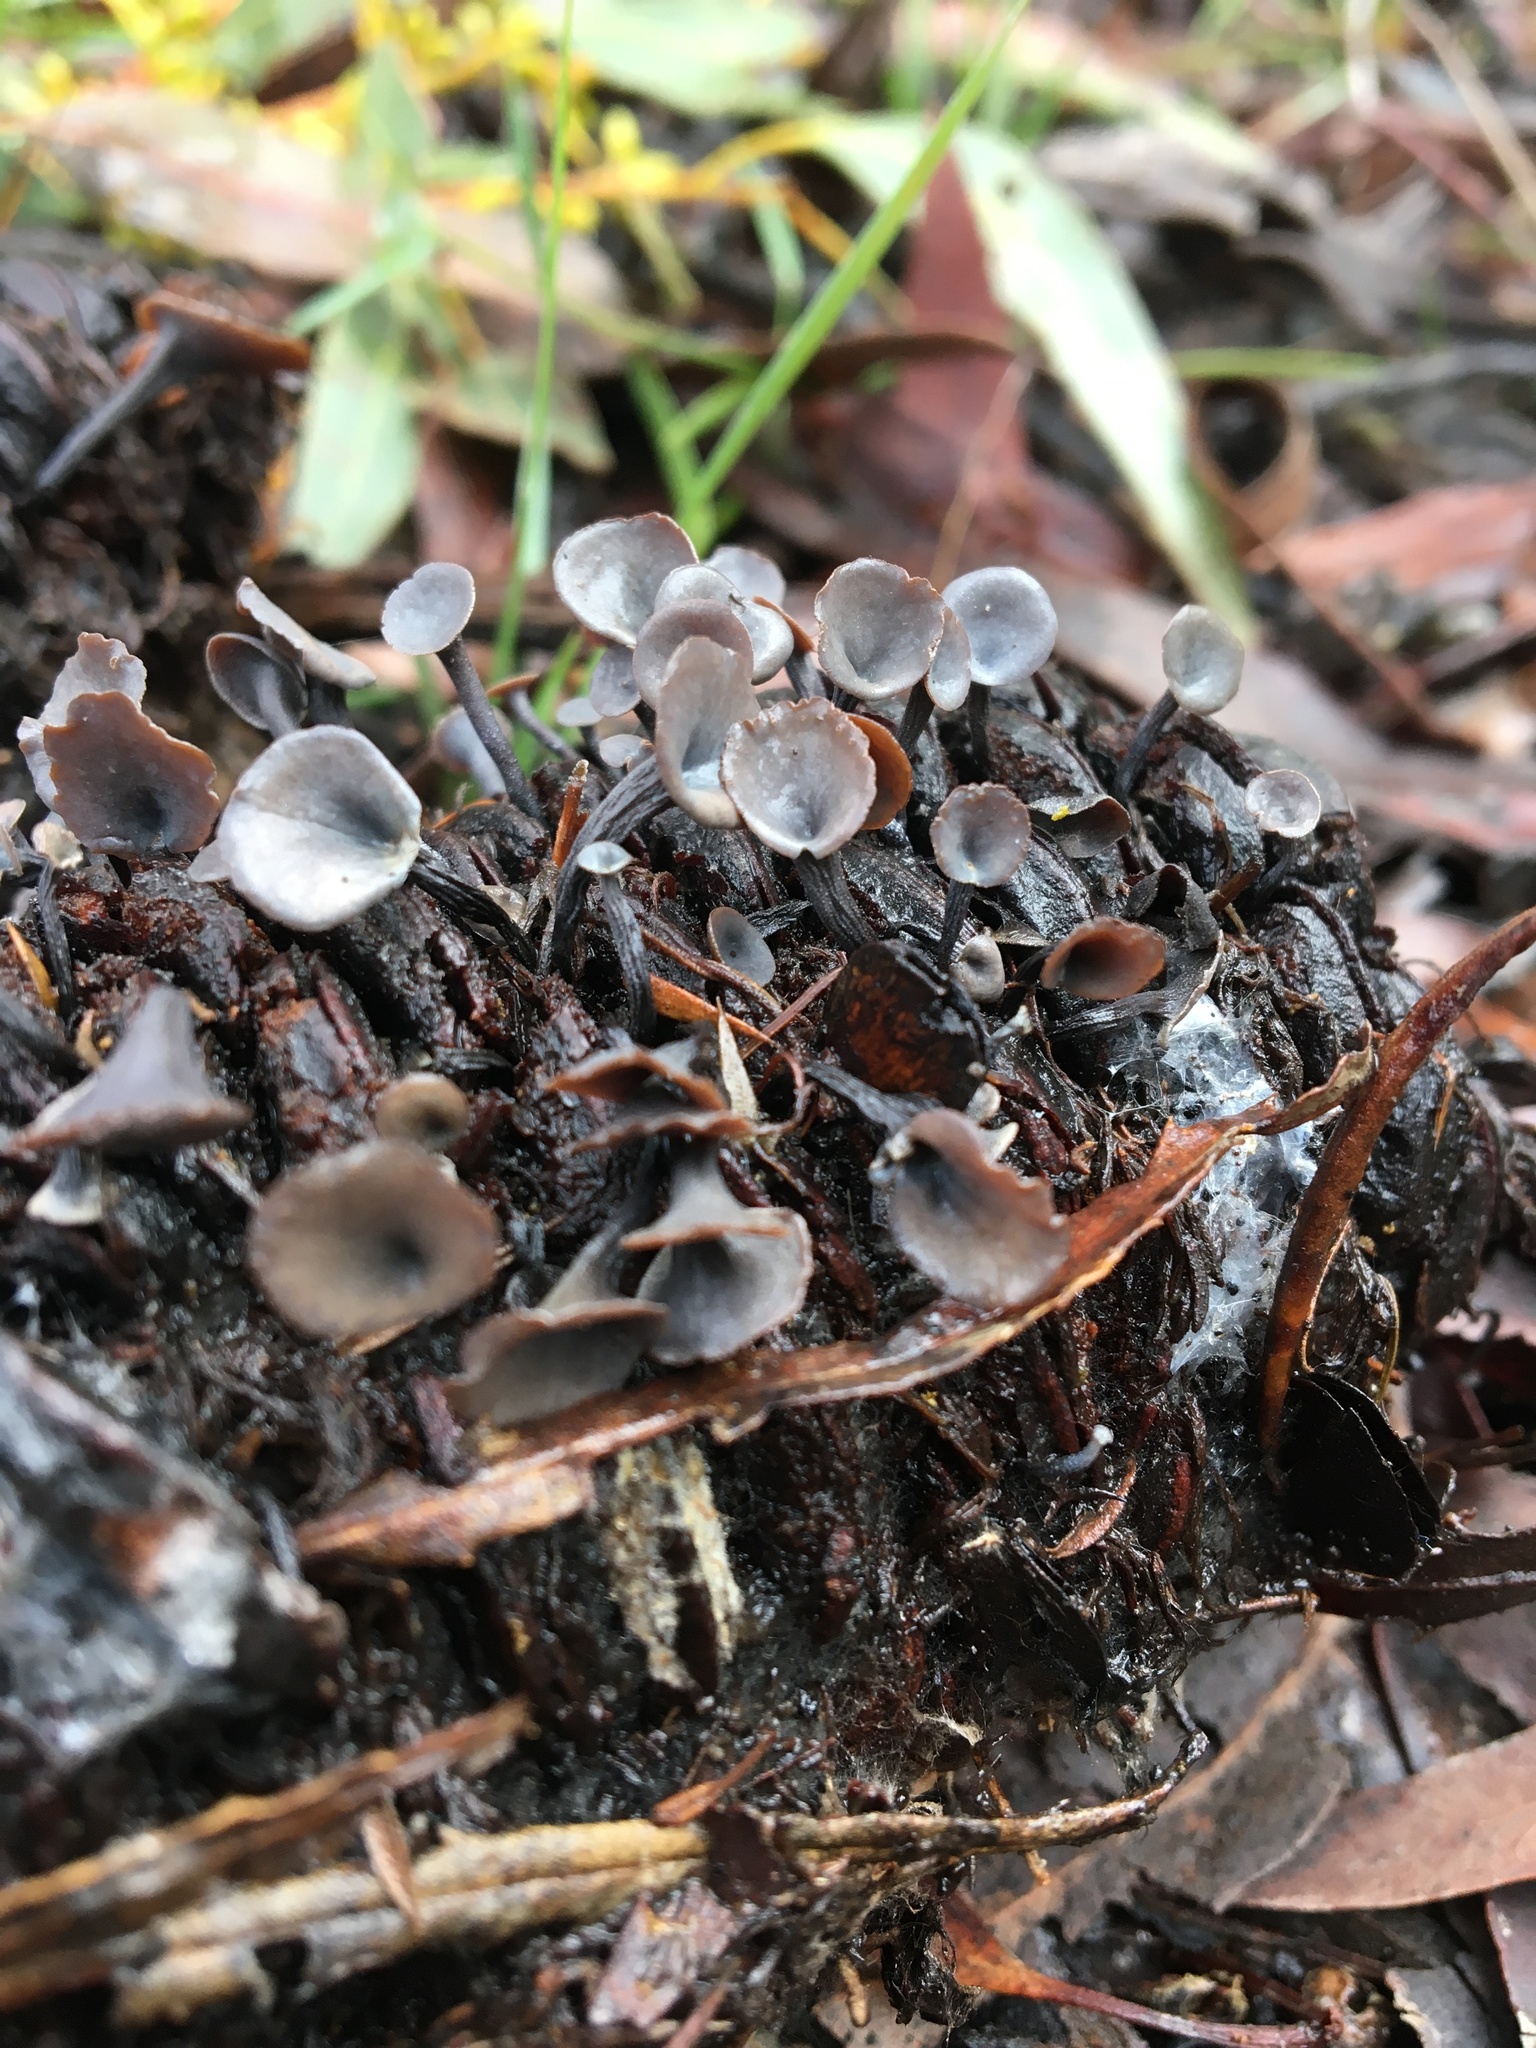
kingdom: Fungi
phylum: Ascomycota
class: Leotiomycetes
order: Helotiales
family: Helotiaceae
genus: Banksiamyces
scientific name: Banksiamyces macrocarpus
